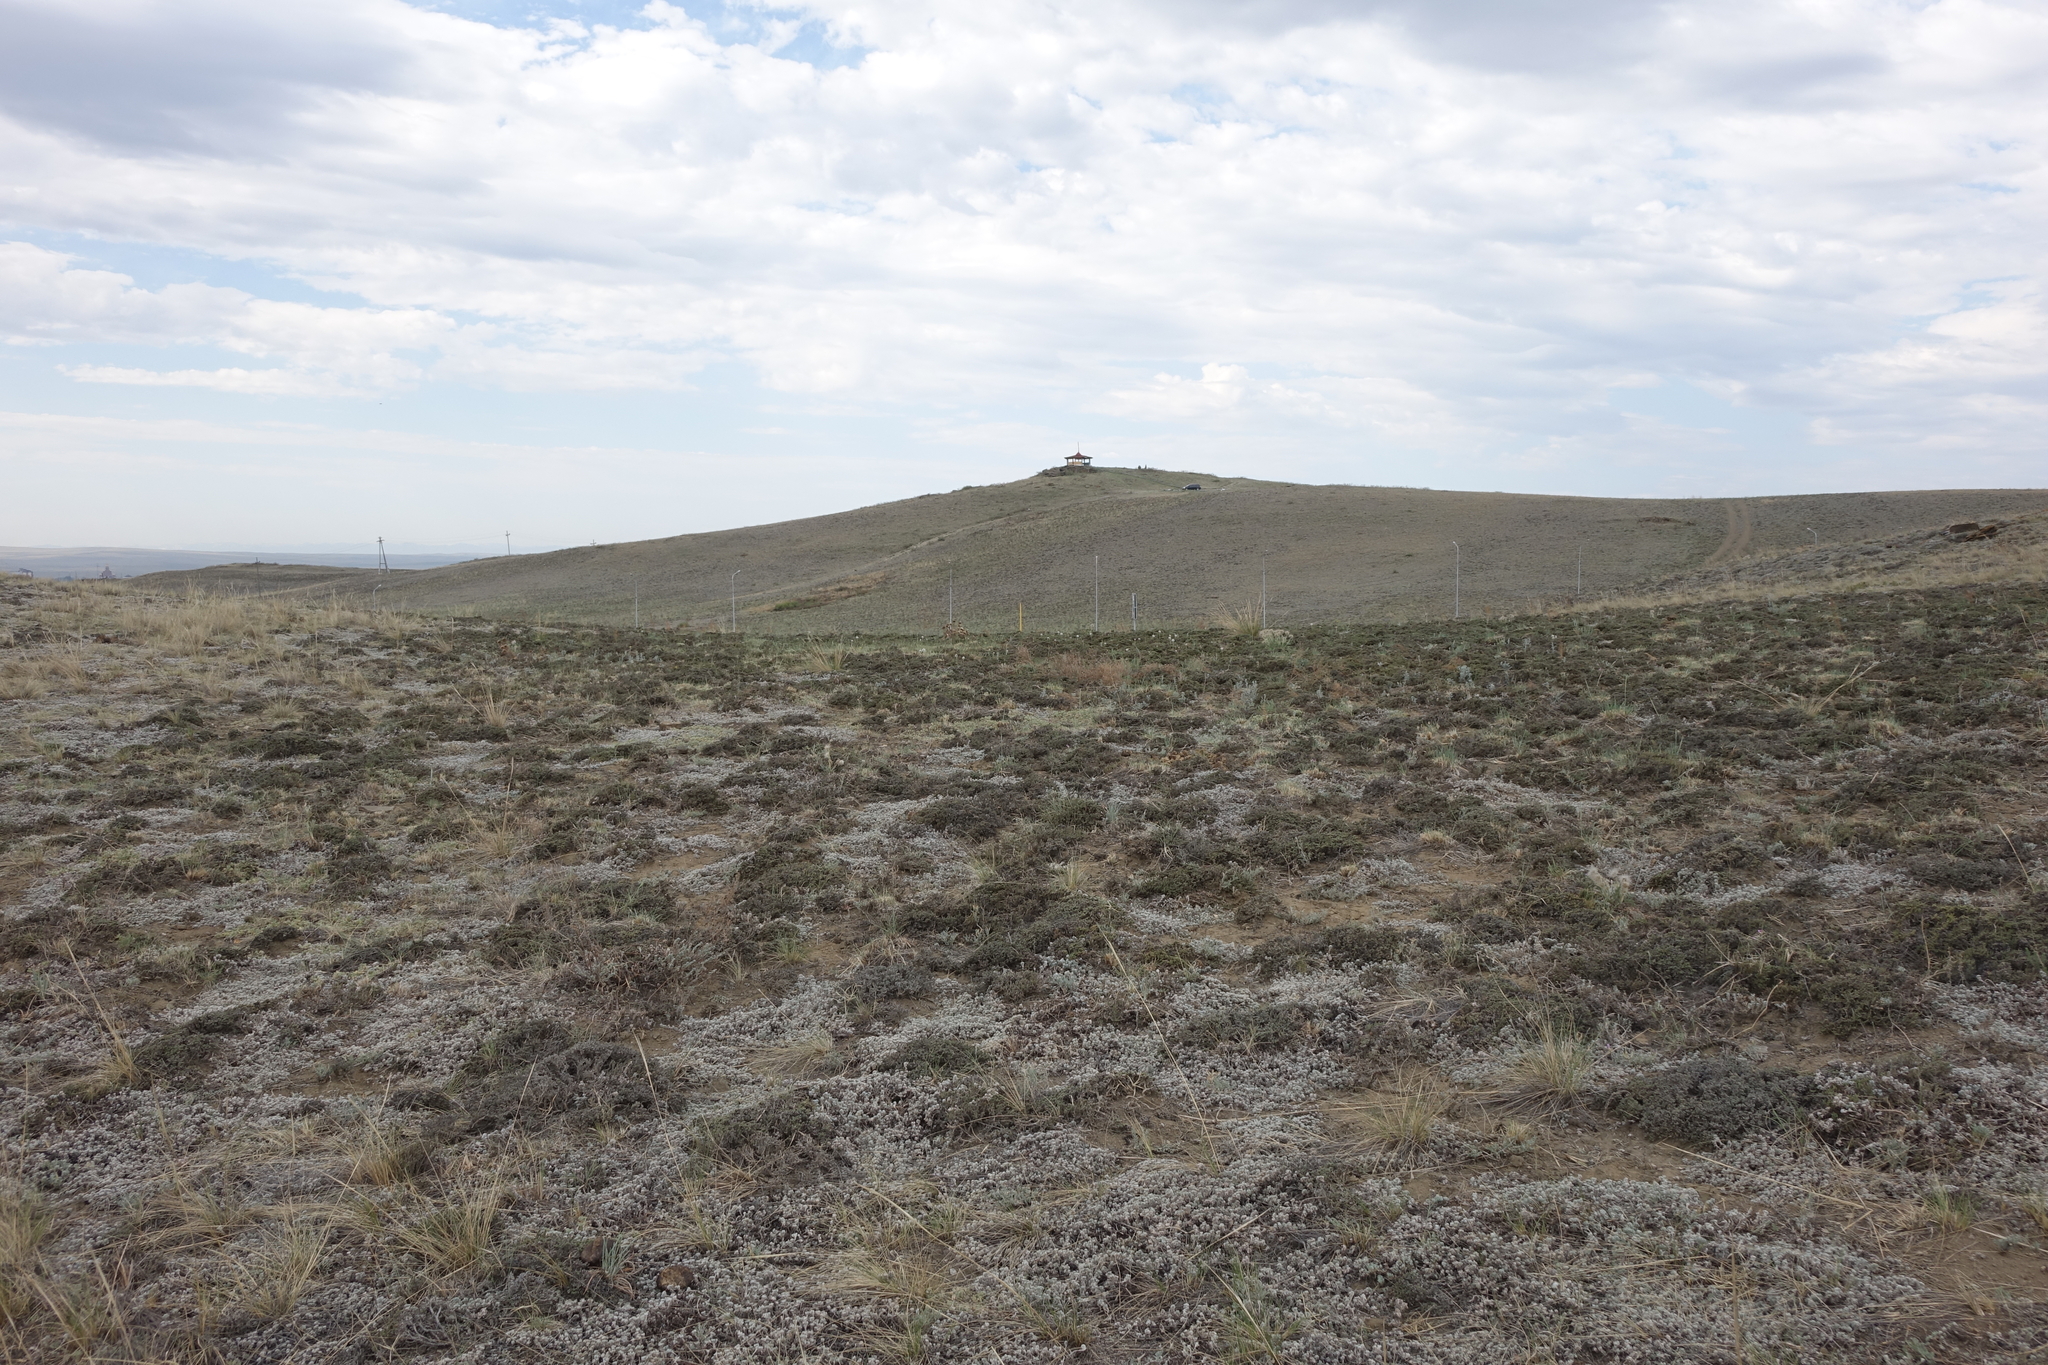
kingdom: Plantae
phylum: Tracheophyta
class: Magnoliopsida
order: Caryophyllales
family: Amaranthaceae
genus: Nanophyton
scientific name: Nanophyton grubovii
